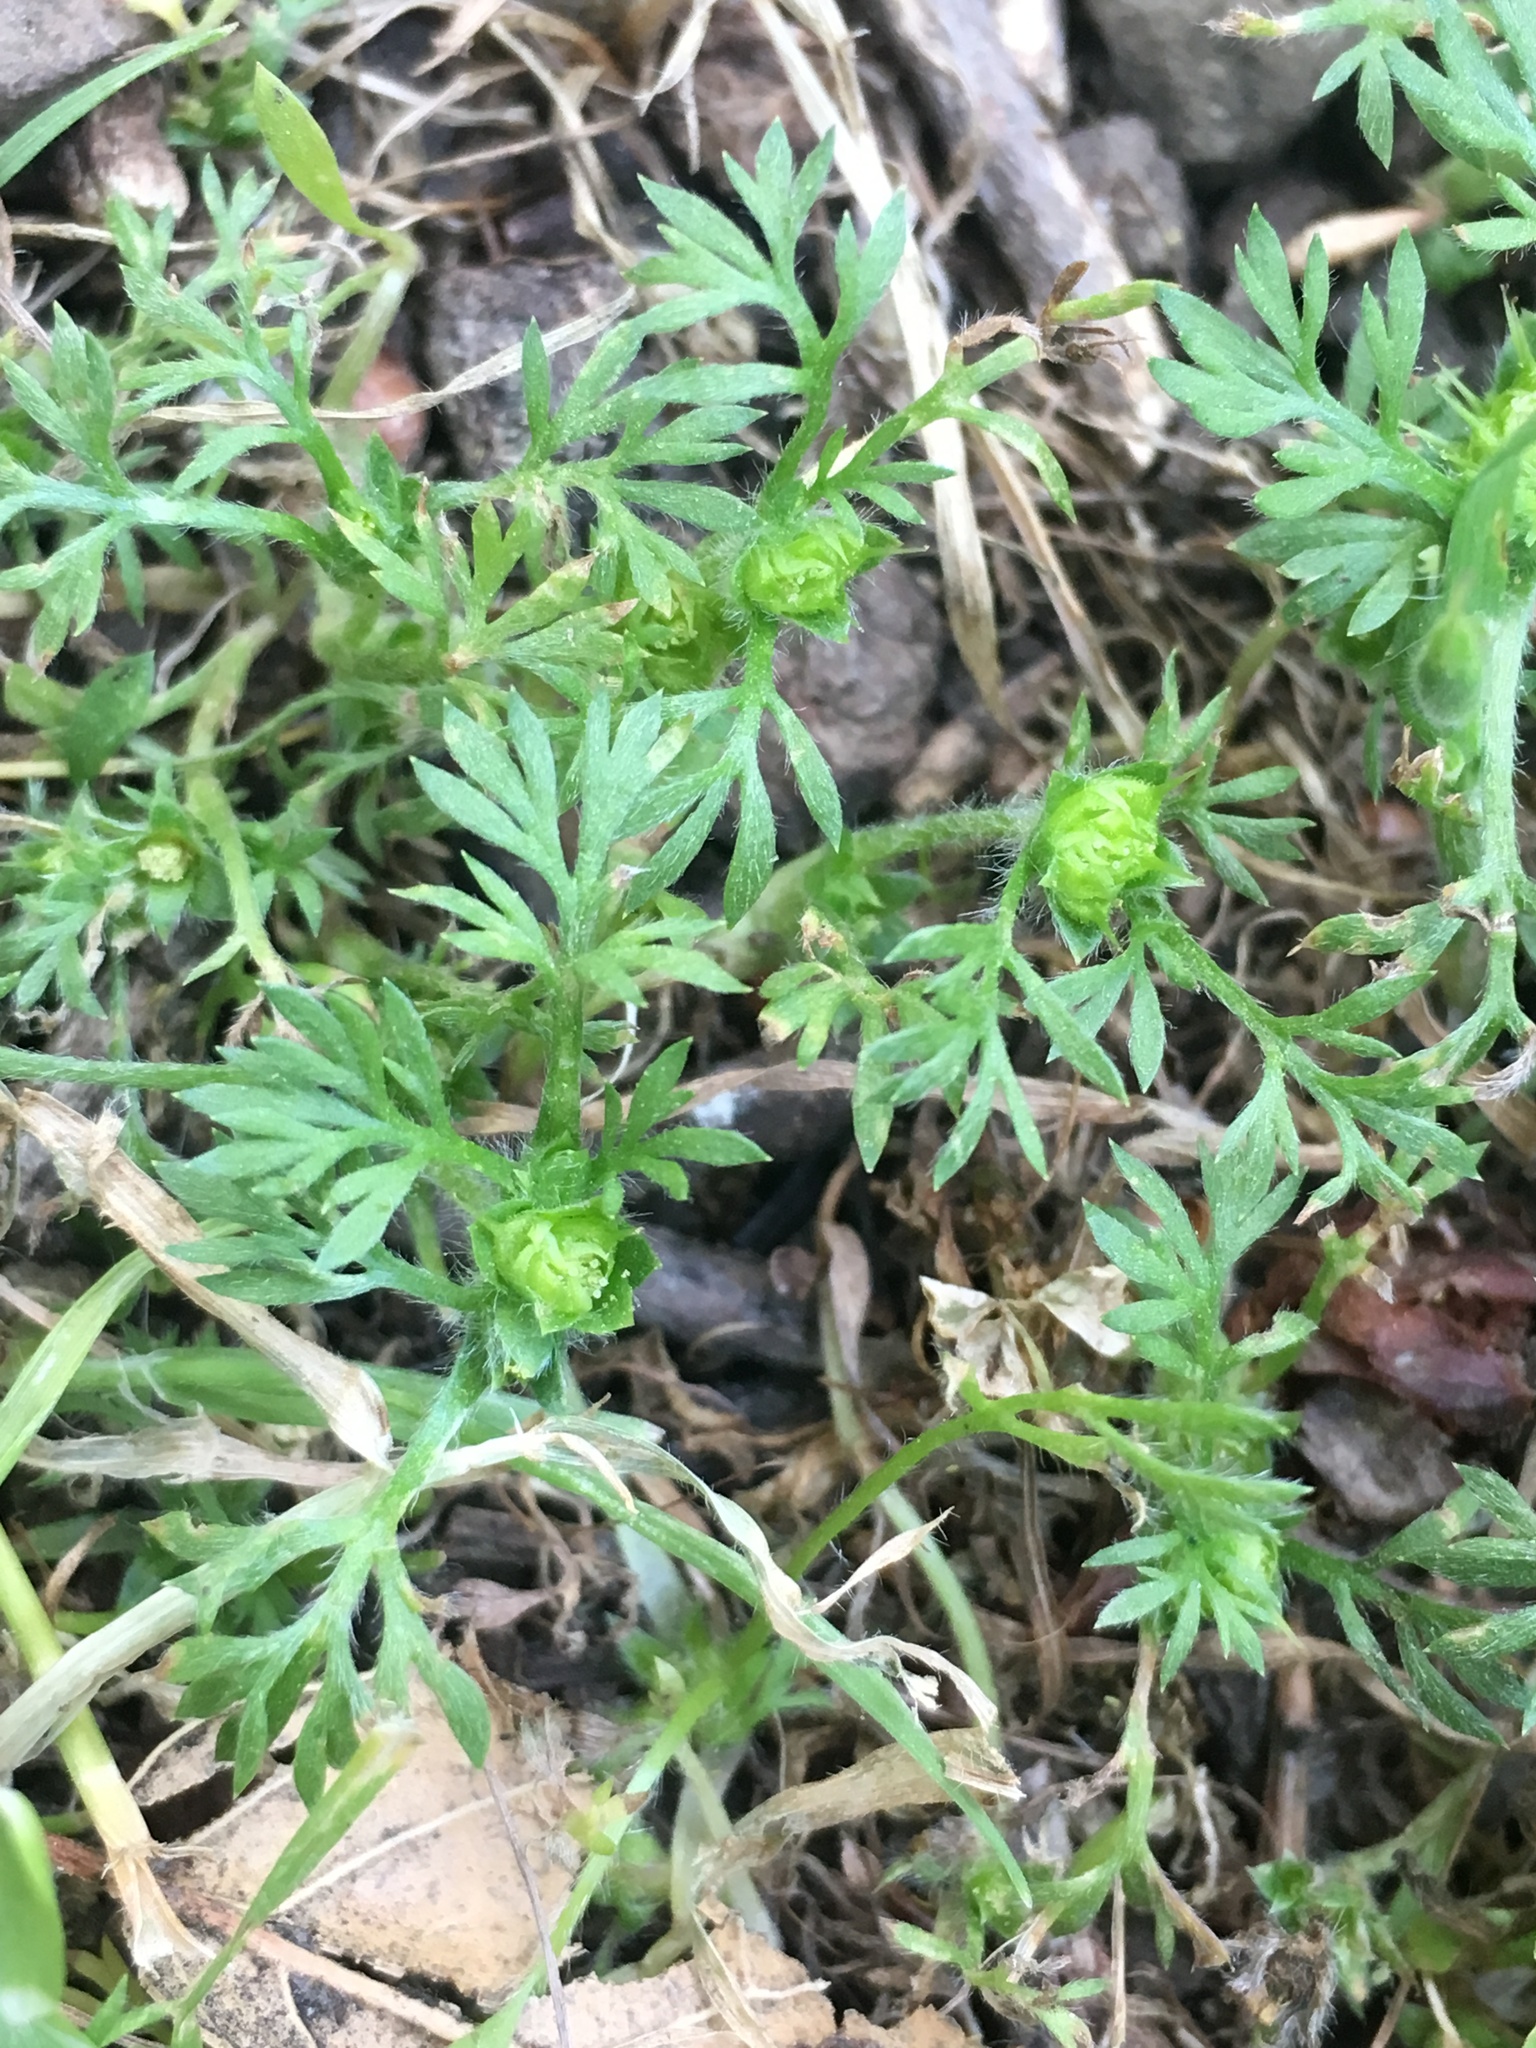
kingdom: Plantae
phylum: Tracheophyta
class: Magnoliopsida
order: Asterales
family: Asteraceae
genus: Soliva
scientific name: Soliva sessilis
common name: Field burrweed
